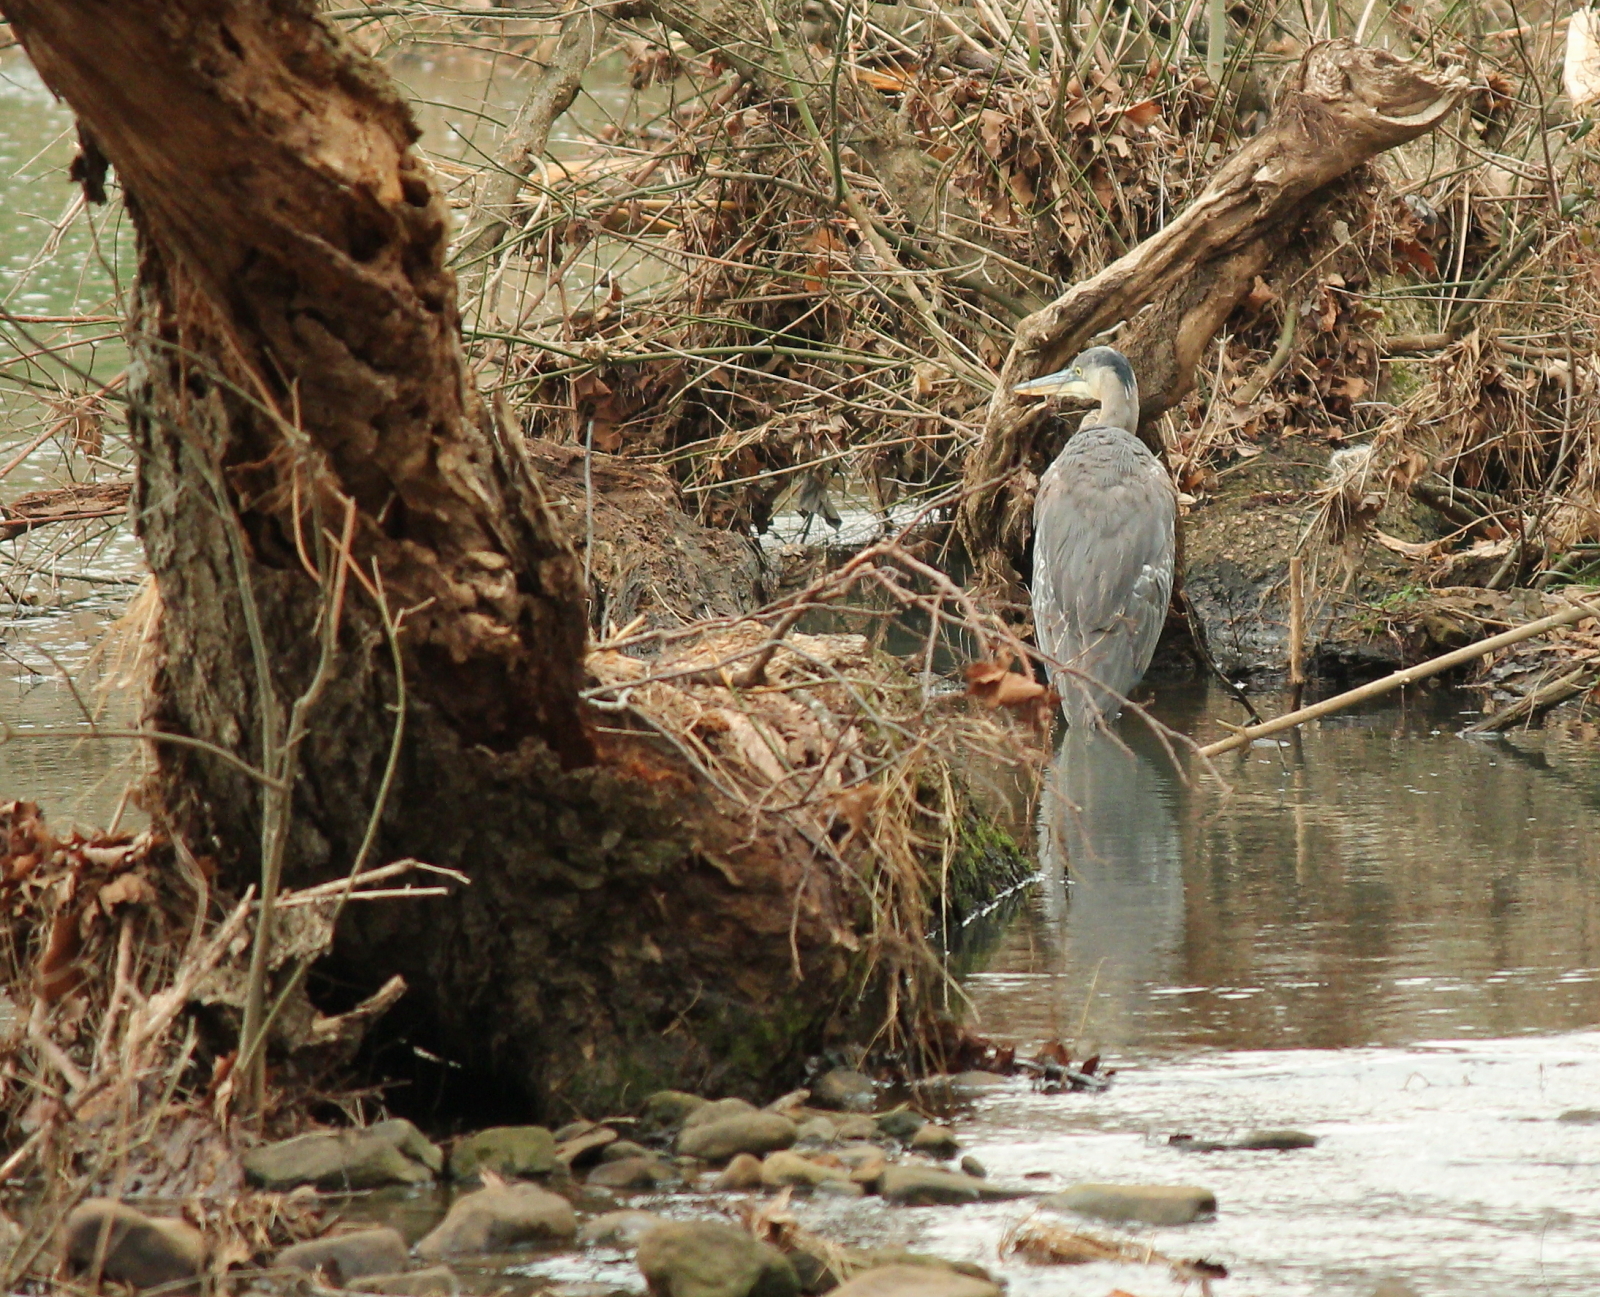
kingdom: Animalia
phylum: Chordata
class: Aves
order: Pelecaniformes
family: Ardeidae
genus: Ardea
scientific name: Ardea herodias
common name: Great blue heron
